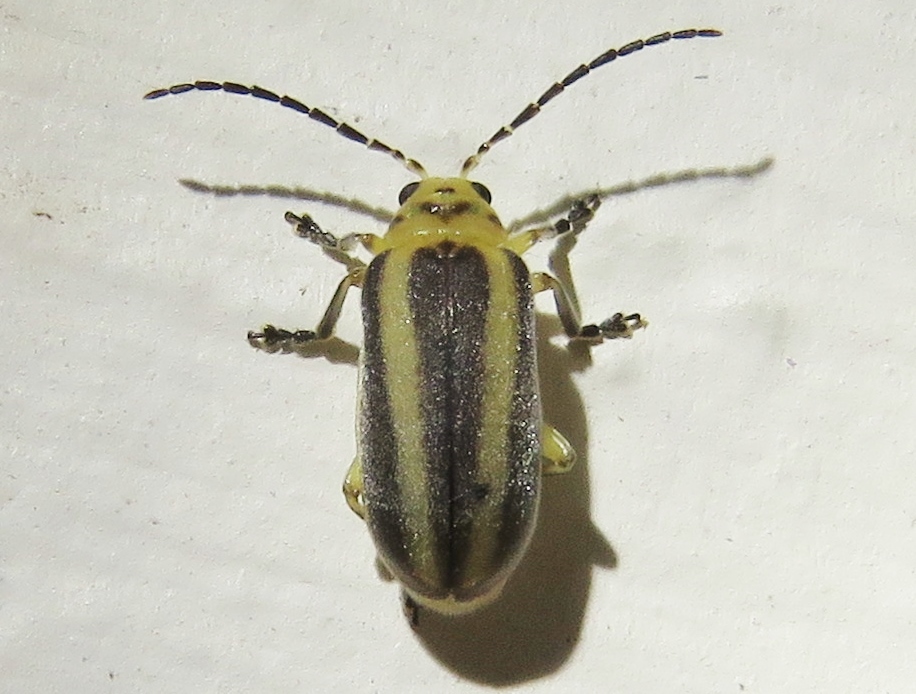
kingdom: Animalia
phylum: Arthropoda
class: Insecta
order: Coleoptera
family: Chrysomelidae
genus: Derospidea
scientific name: Derospidea brevicollis
